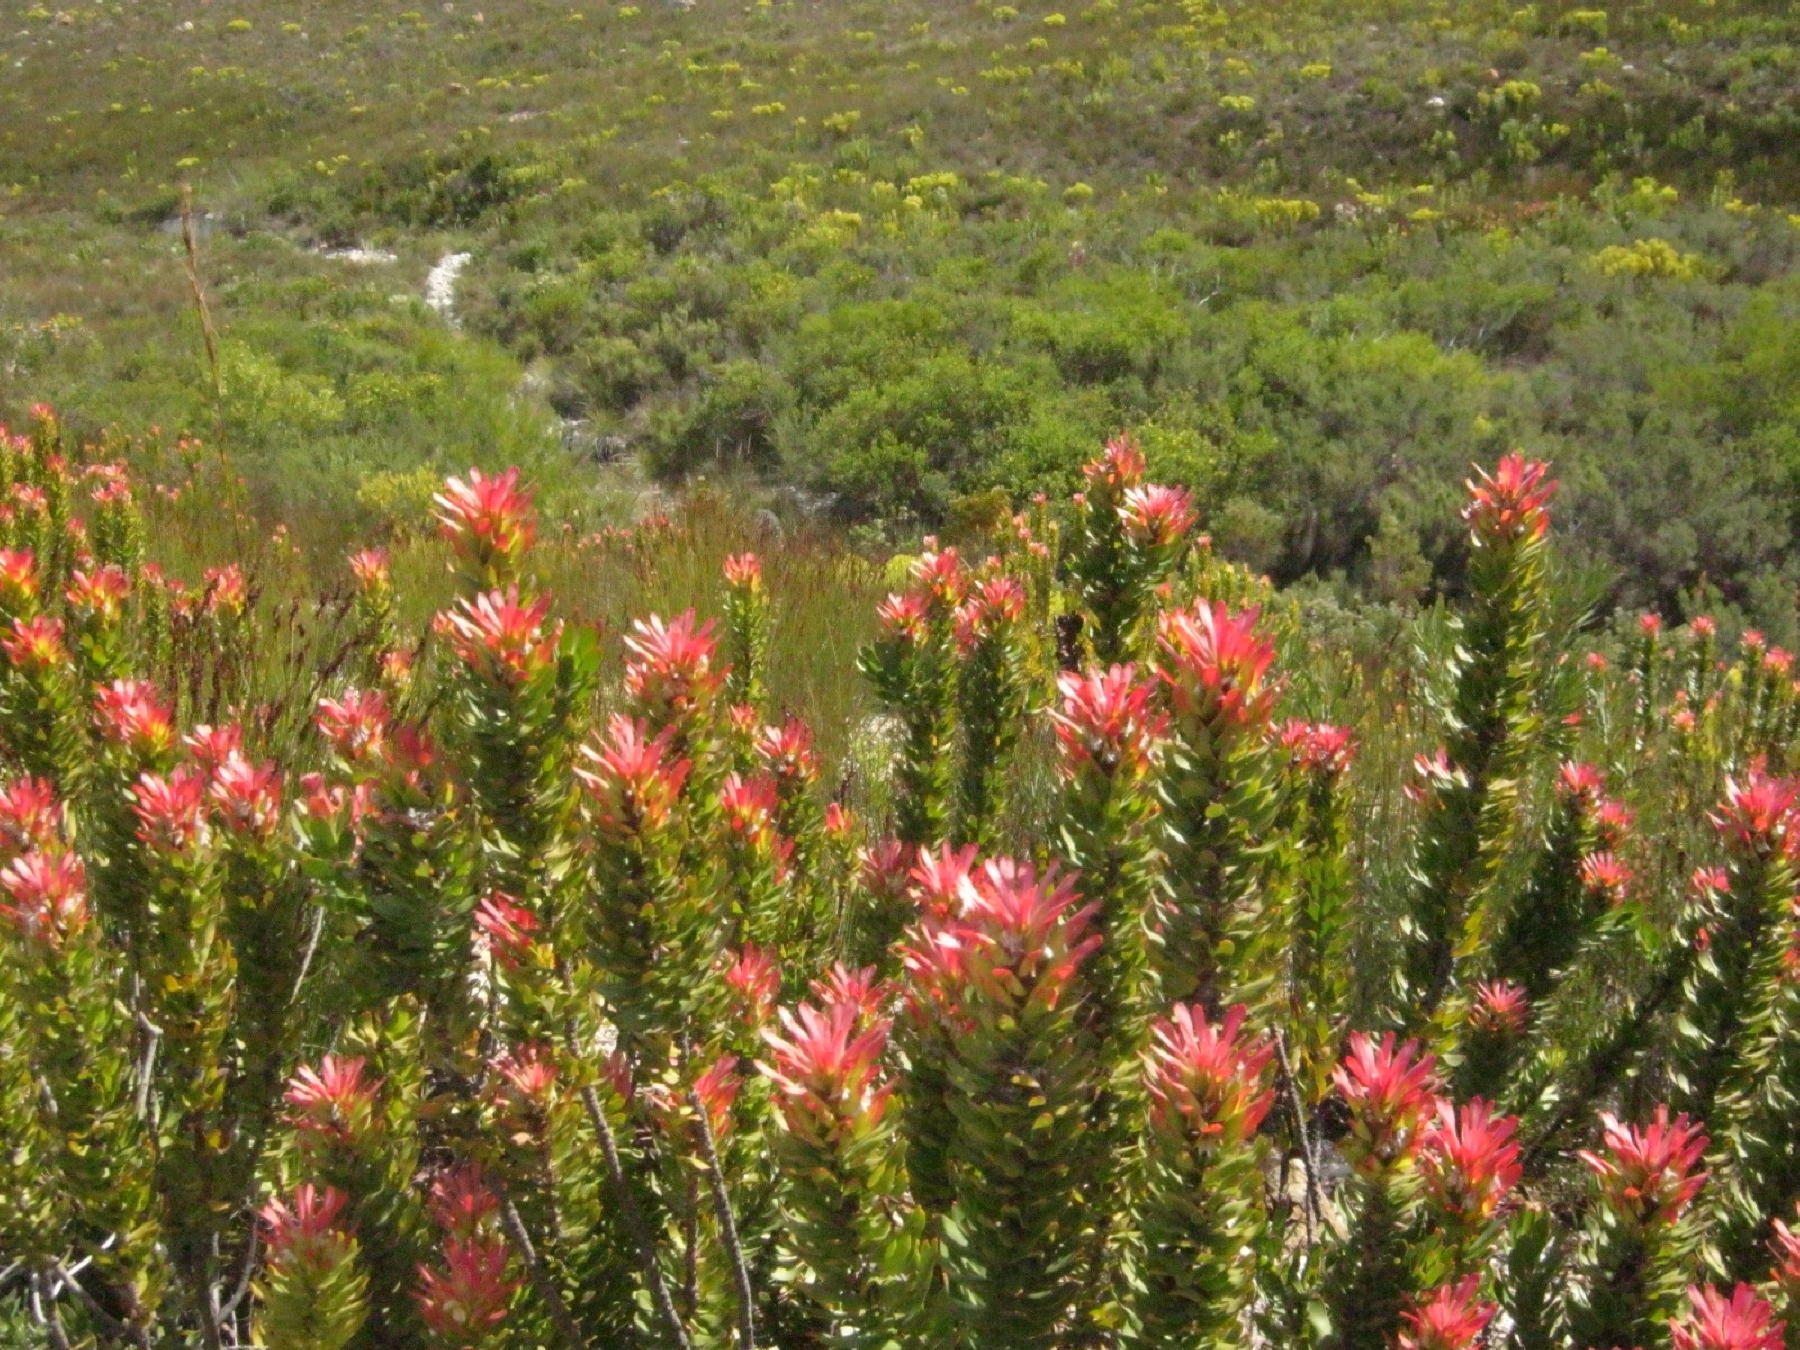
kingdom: Plantae
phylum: Tracheophyta
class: Magnoliopsida
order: Proteales
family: Proteaceae
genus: Mimetes
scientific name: Mimetes cucullatus
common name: Common pagoda
